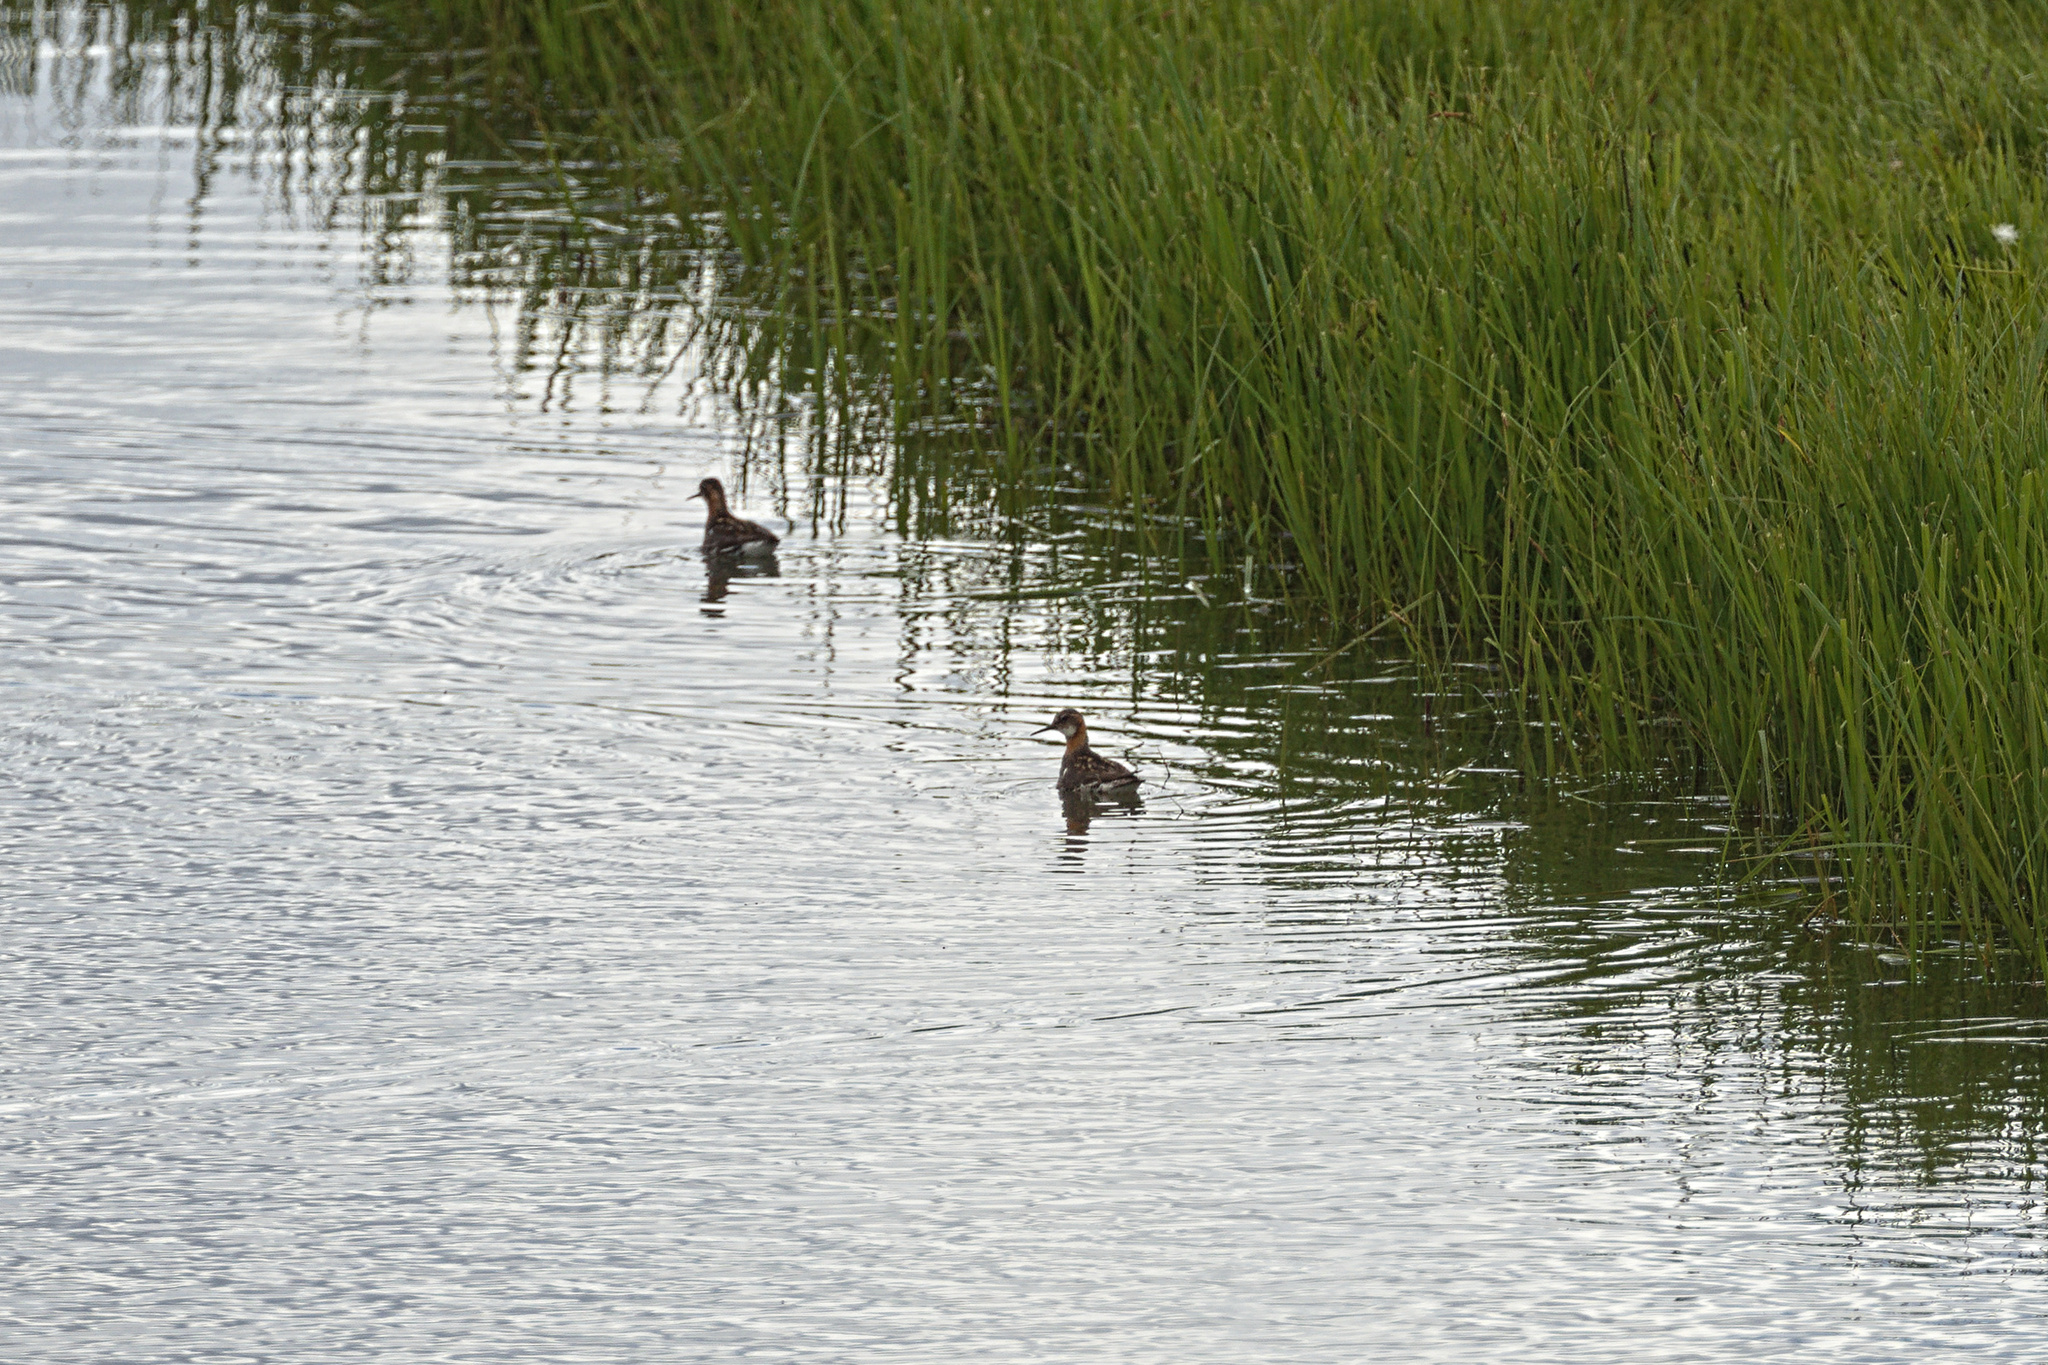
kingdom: Animalia
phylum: Chordata
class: Aves
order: Charadriiformes
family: Scolopacidae
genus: Phalaropus
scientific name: Phalaropus lobatus
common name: Red-necked phalarope
